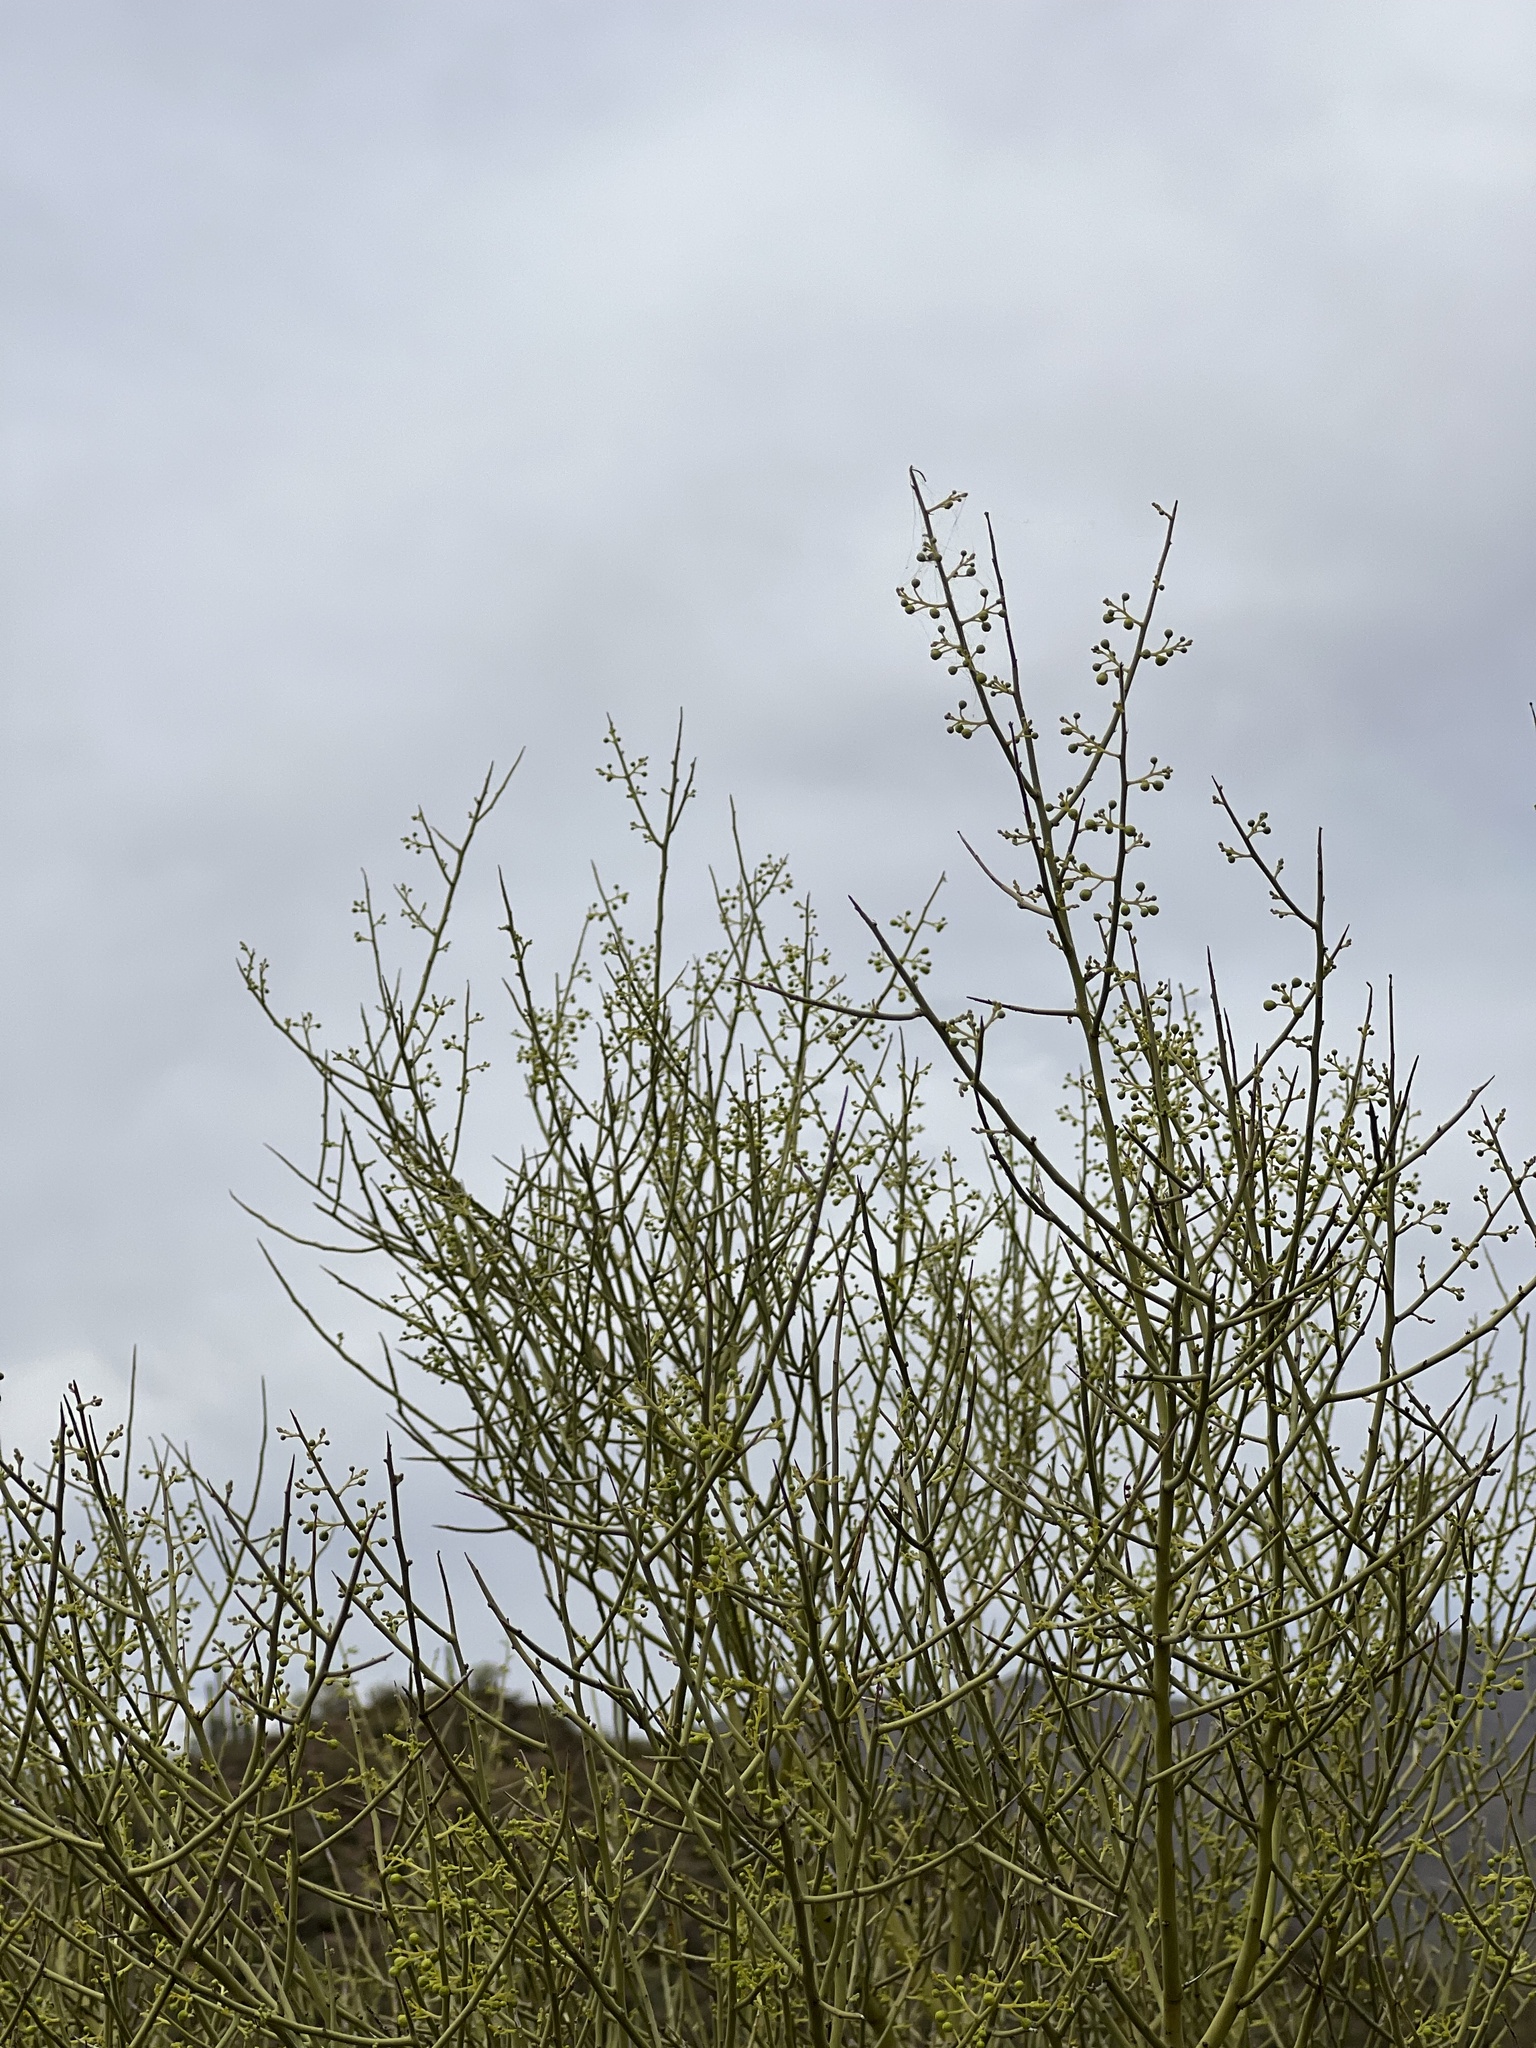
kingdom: Plantae
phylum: Tracheophyta
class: Magnoliopsida
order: Fabales
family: Fabaceae
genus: Parkinsonia
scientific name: Parkinsonia microphylla
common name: Yellow paloverde
